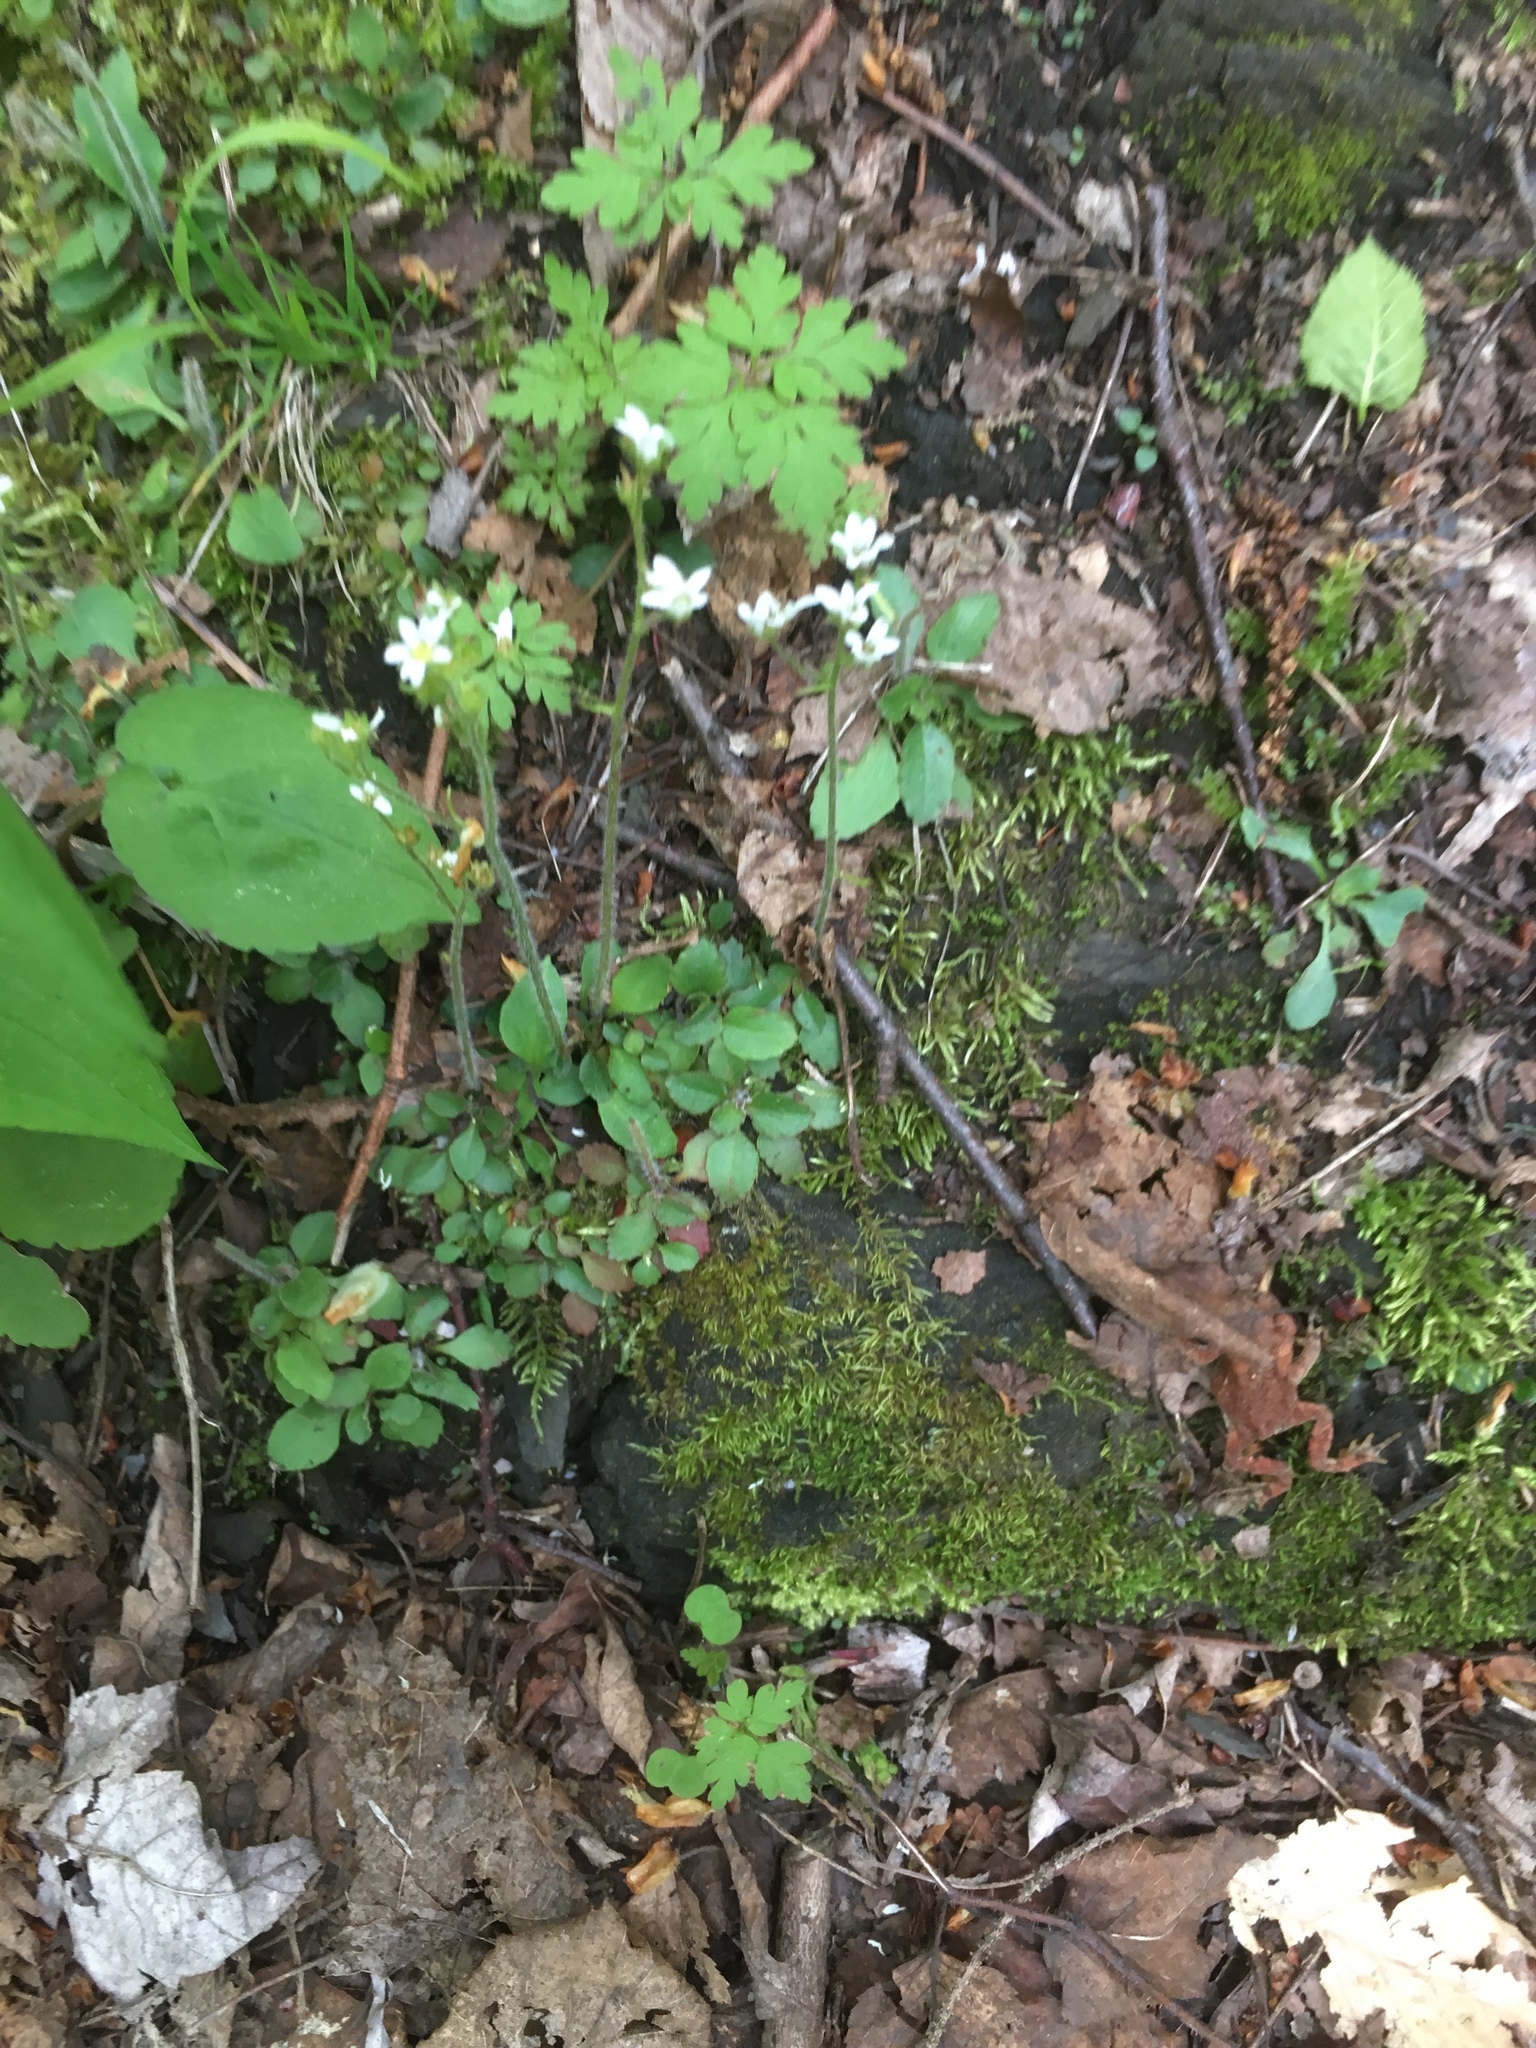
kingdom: Plantae
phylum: Tracheophyta
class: Magnoliopsida
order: Saxifragales
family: Saxifragaceae
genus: Micranthes
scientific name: Micranthes virginiensis
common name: Early saxifrage
